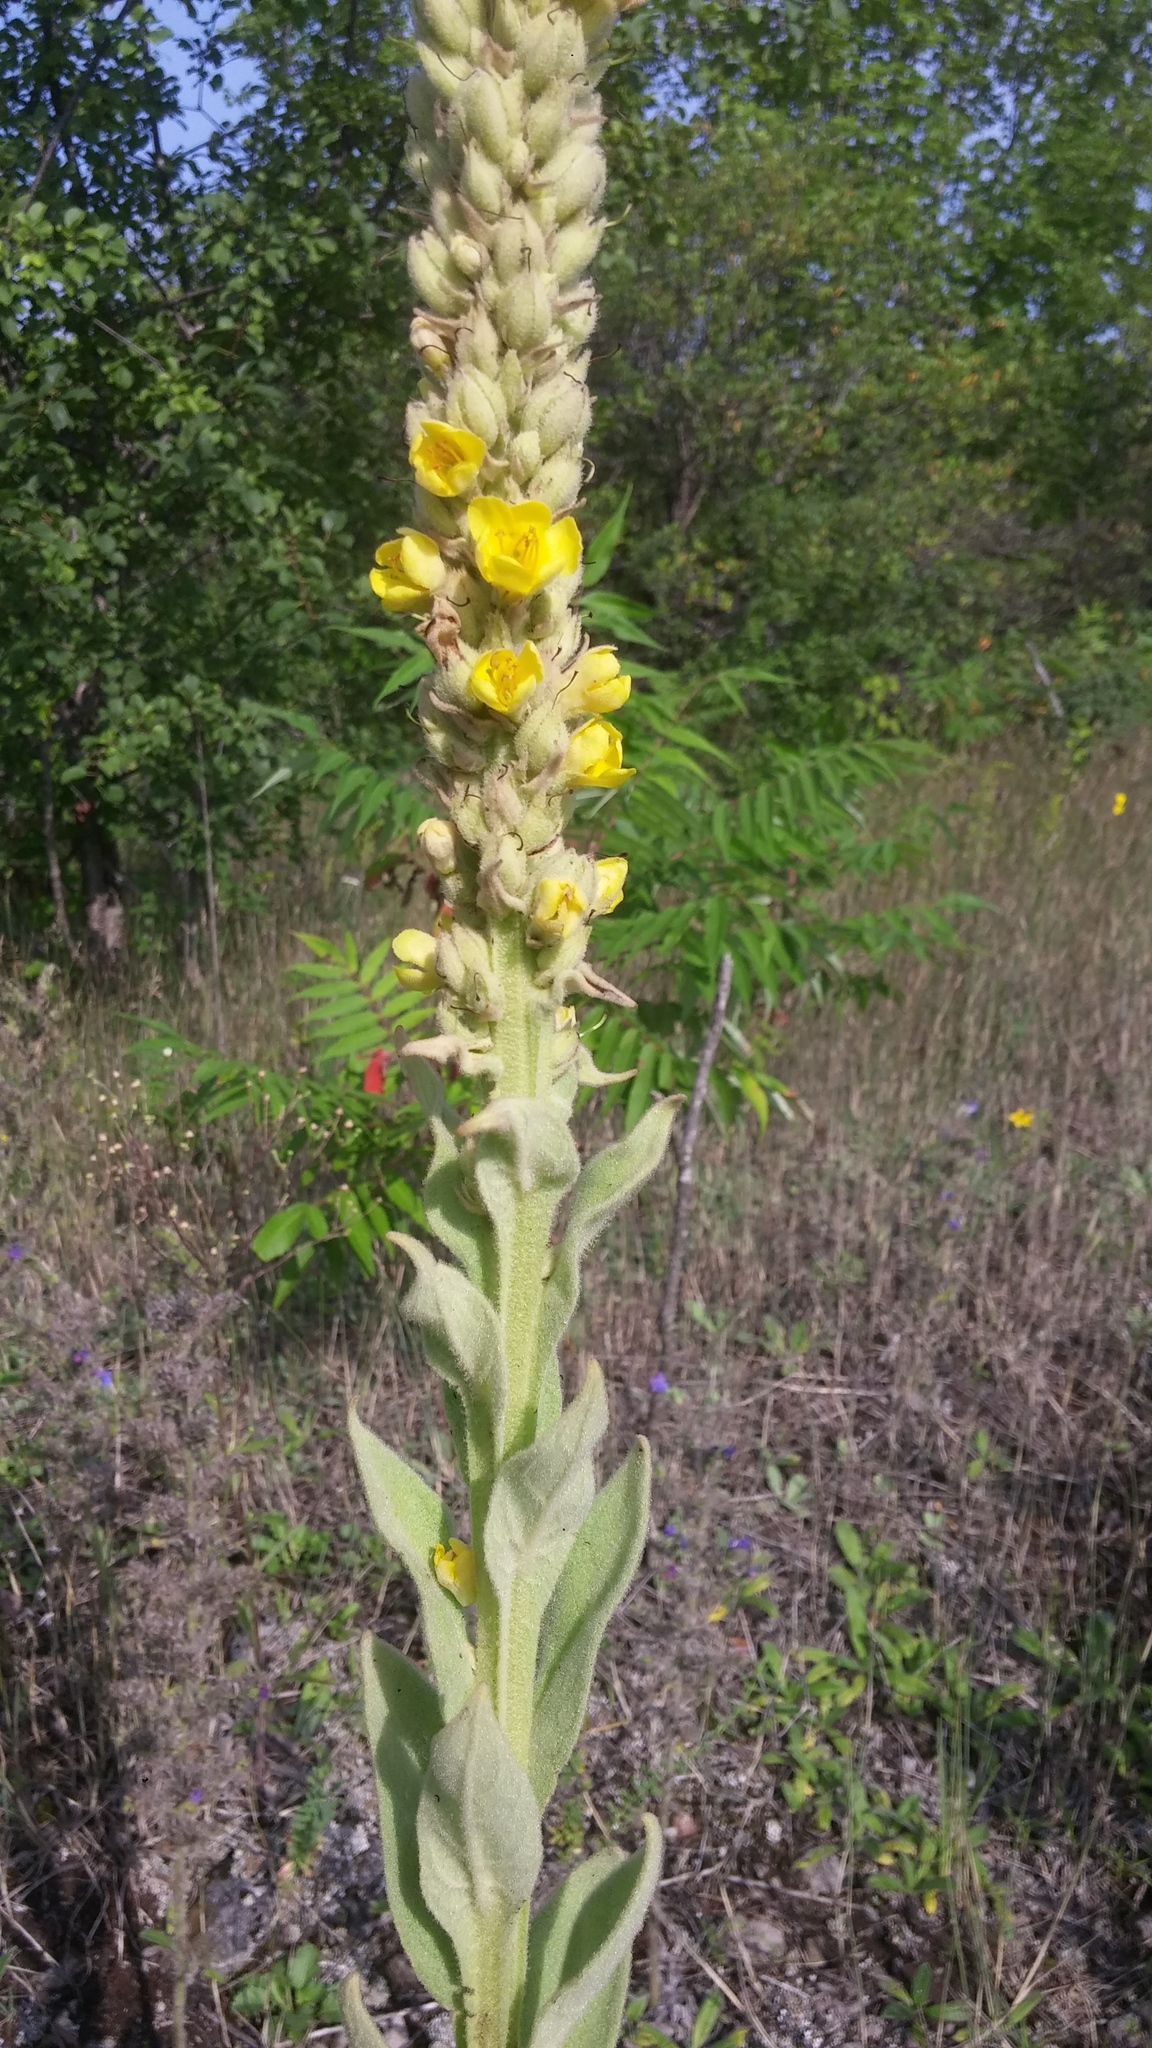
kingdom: Plantae
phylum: Tracheophyta
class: Magnoliopsida
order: Lamiales
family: Scrophulariaceae
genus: Verbascum
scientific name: Verbascum thapsus
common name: Common mullein
